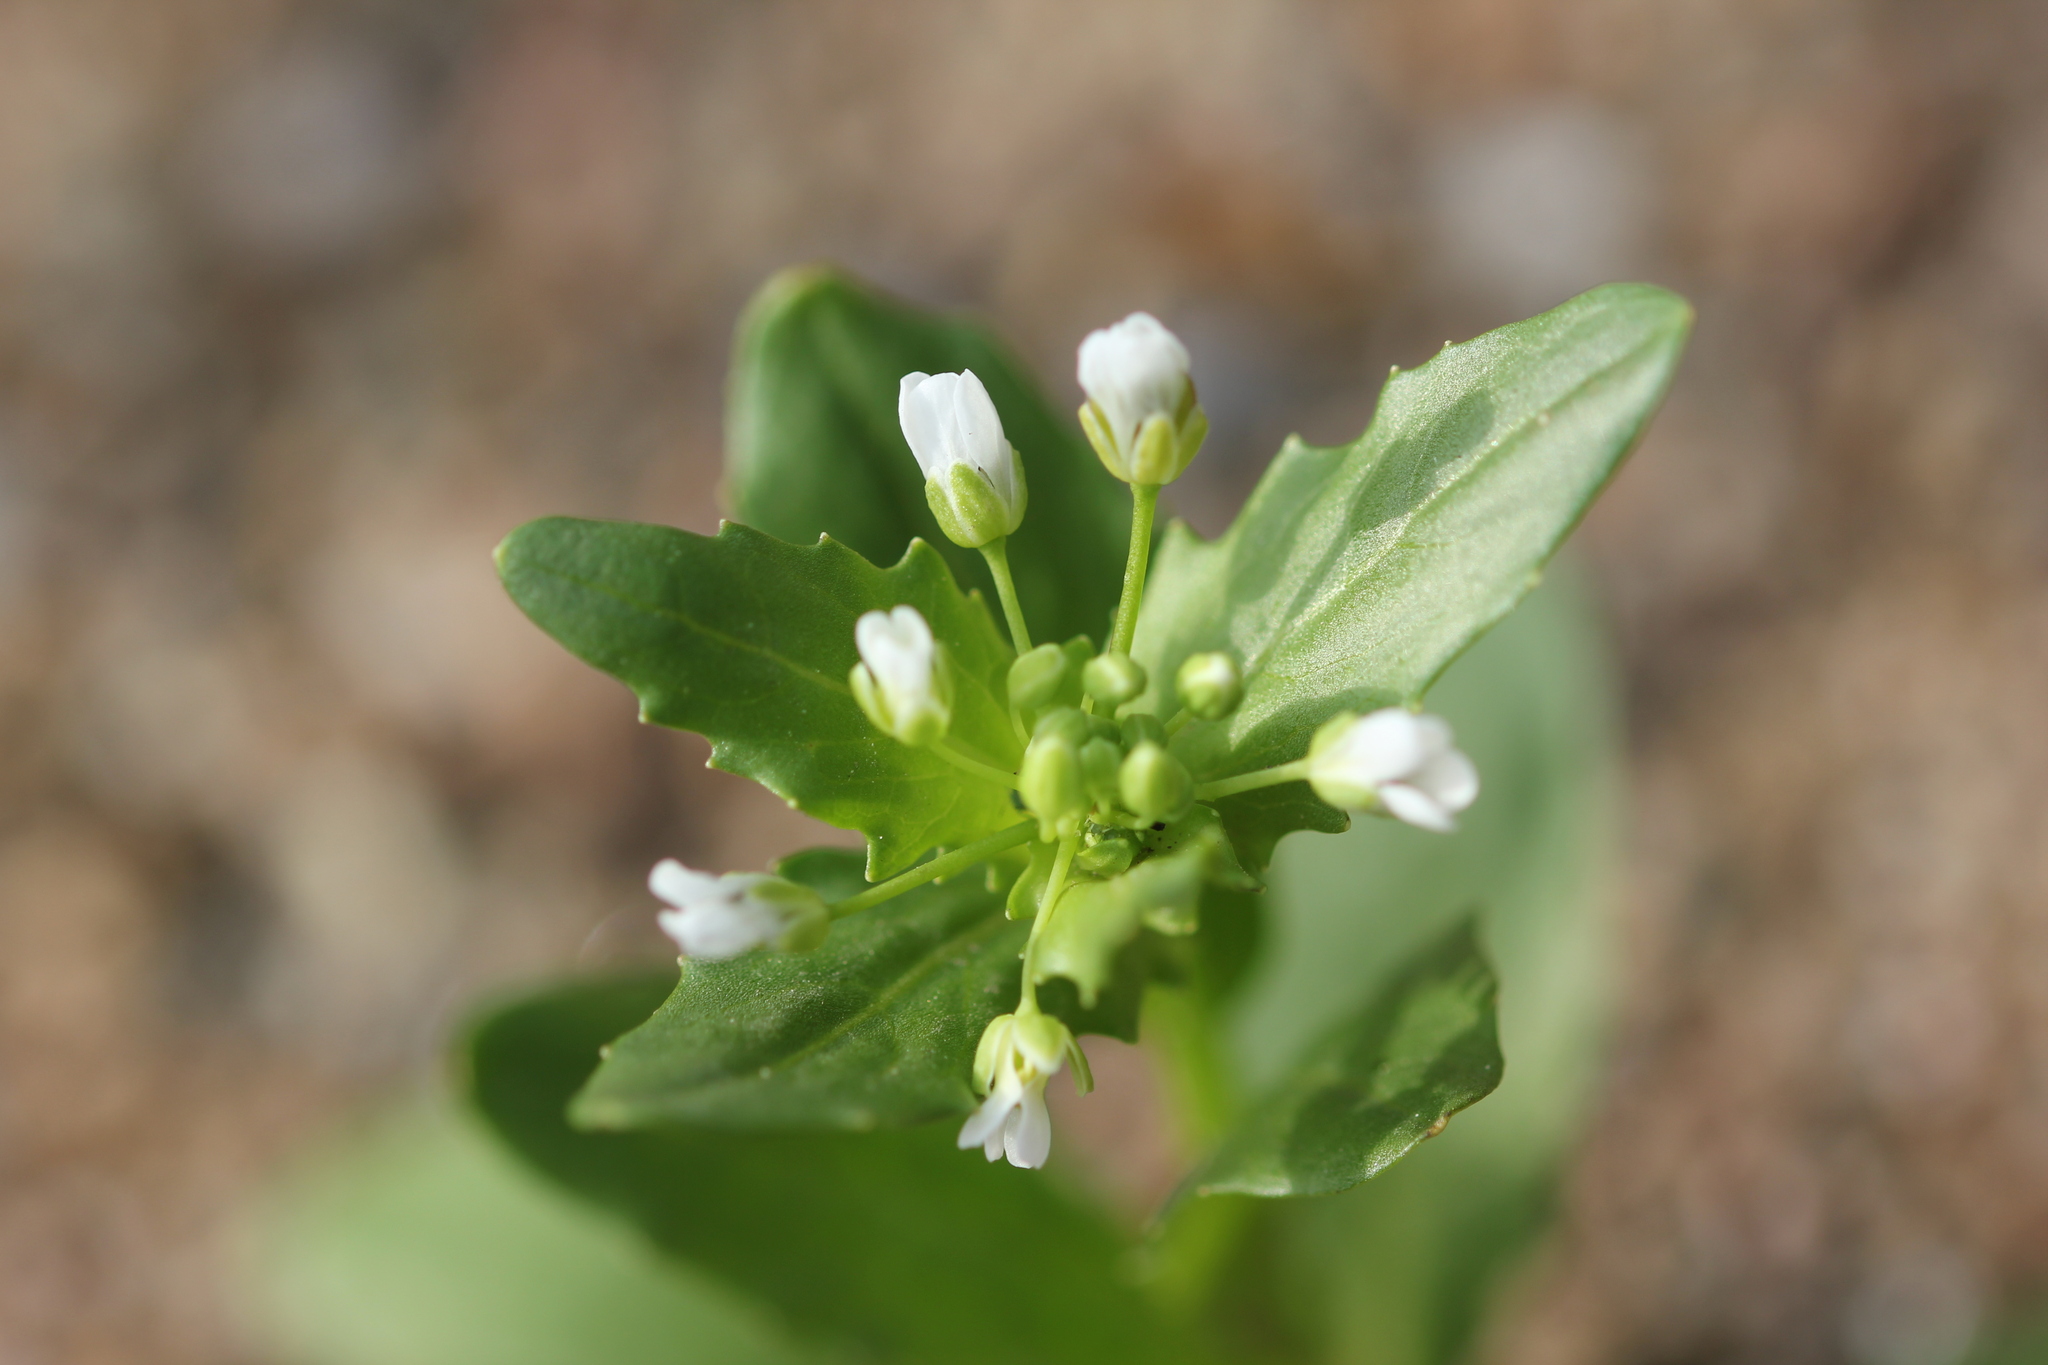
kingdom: Plantae
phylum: Tracheophyta
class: Magnoliopsida
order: Brassicales
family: Brassicaceae
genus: Thlaspi
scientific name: Thlaspi arvense
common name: Field pennycress
